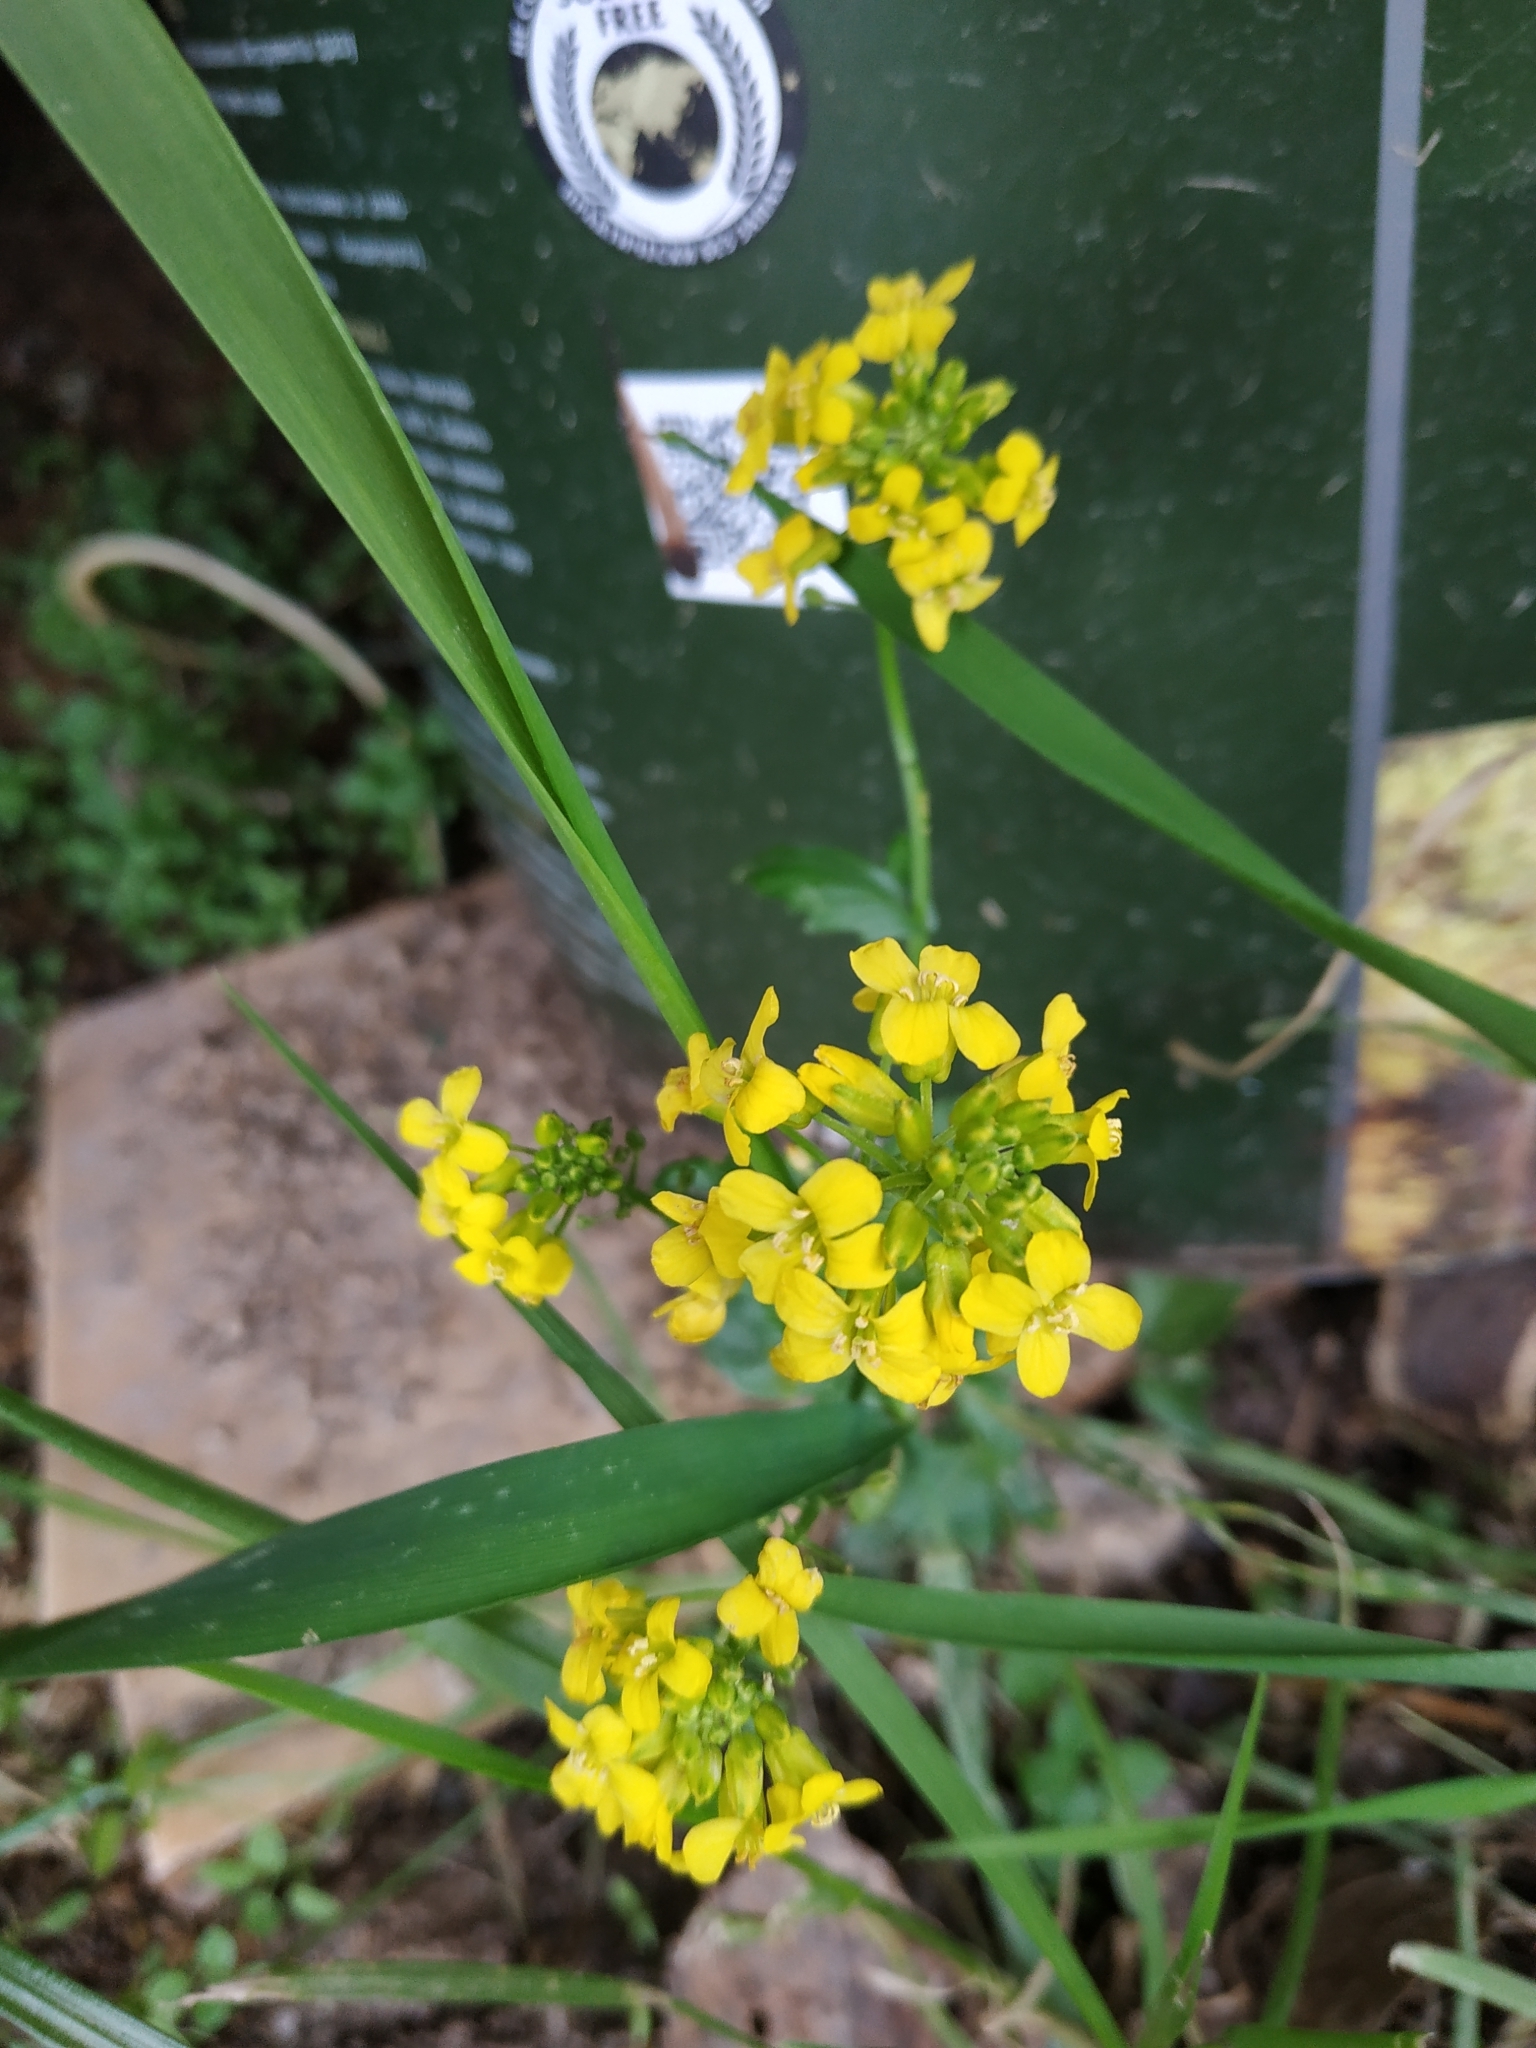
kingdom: Plantae
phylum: Tracheophyta
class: Magnoliopsida
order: Brassicales
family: Brassicaceae
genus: Barbarea
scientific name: Barbarea vulgaris
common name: Cressy-greens
